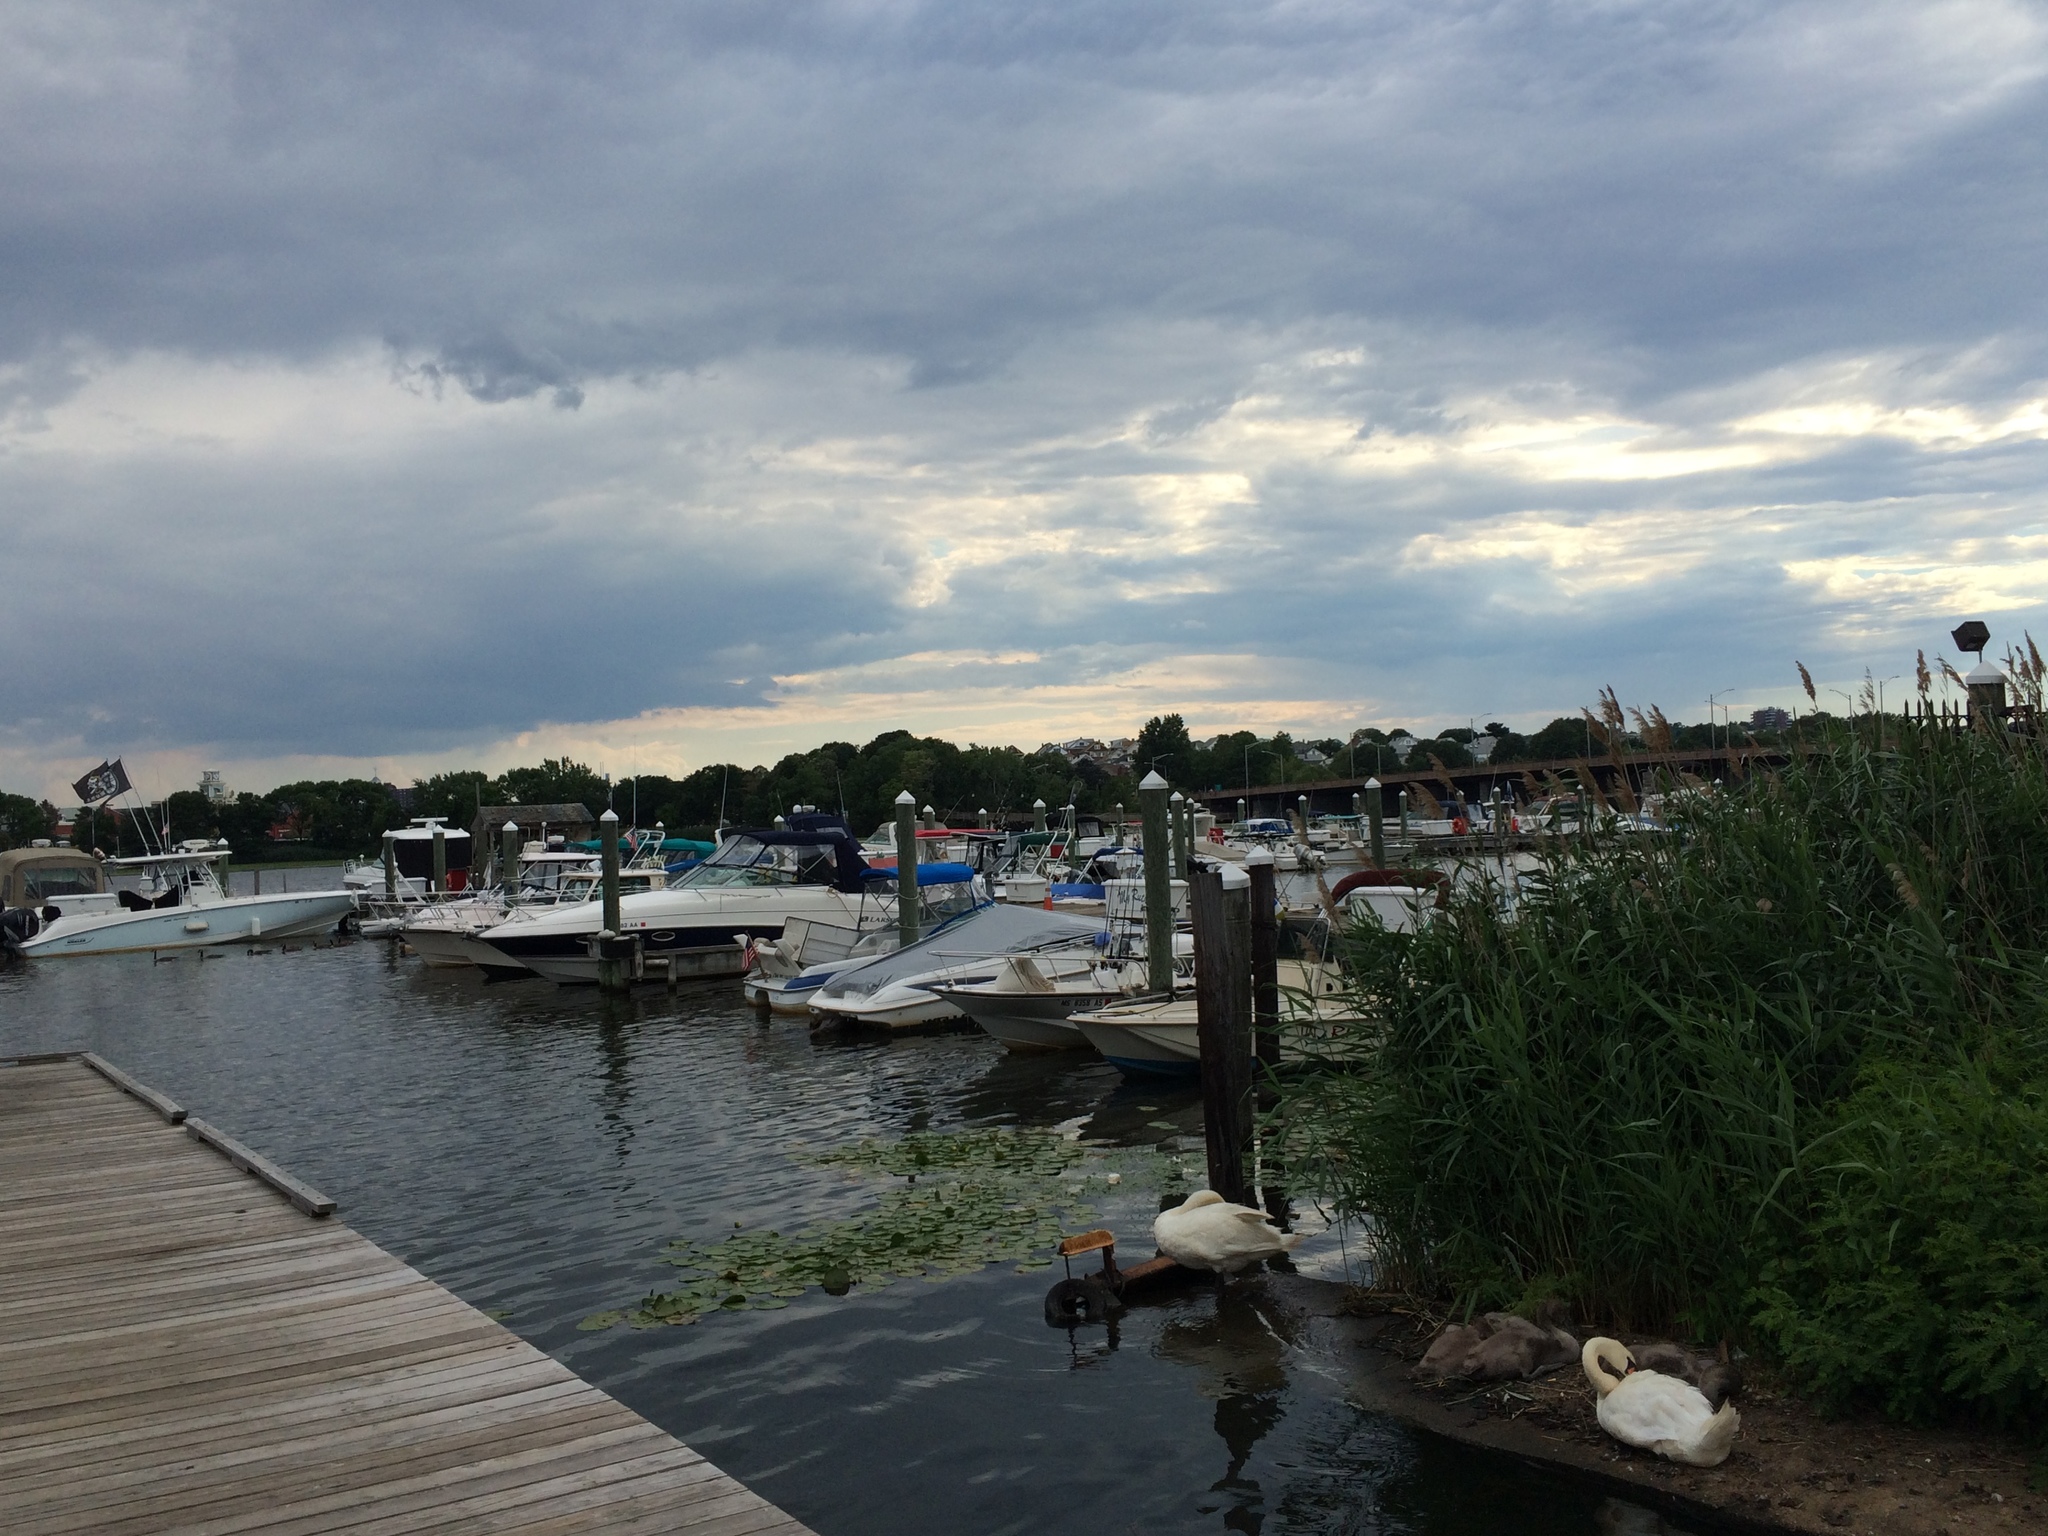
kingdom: Animalia
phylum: Chordata
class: Aves
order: Anseriformes
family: Anatidae
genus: Cygnus
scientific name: Cygnus olor
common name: Mute swan
